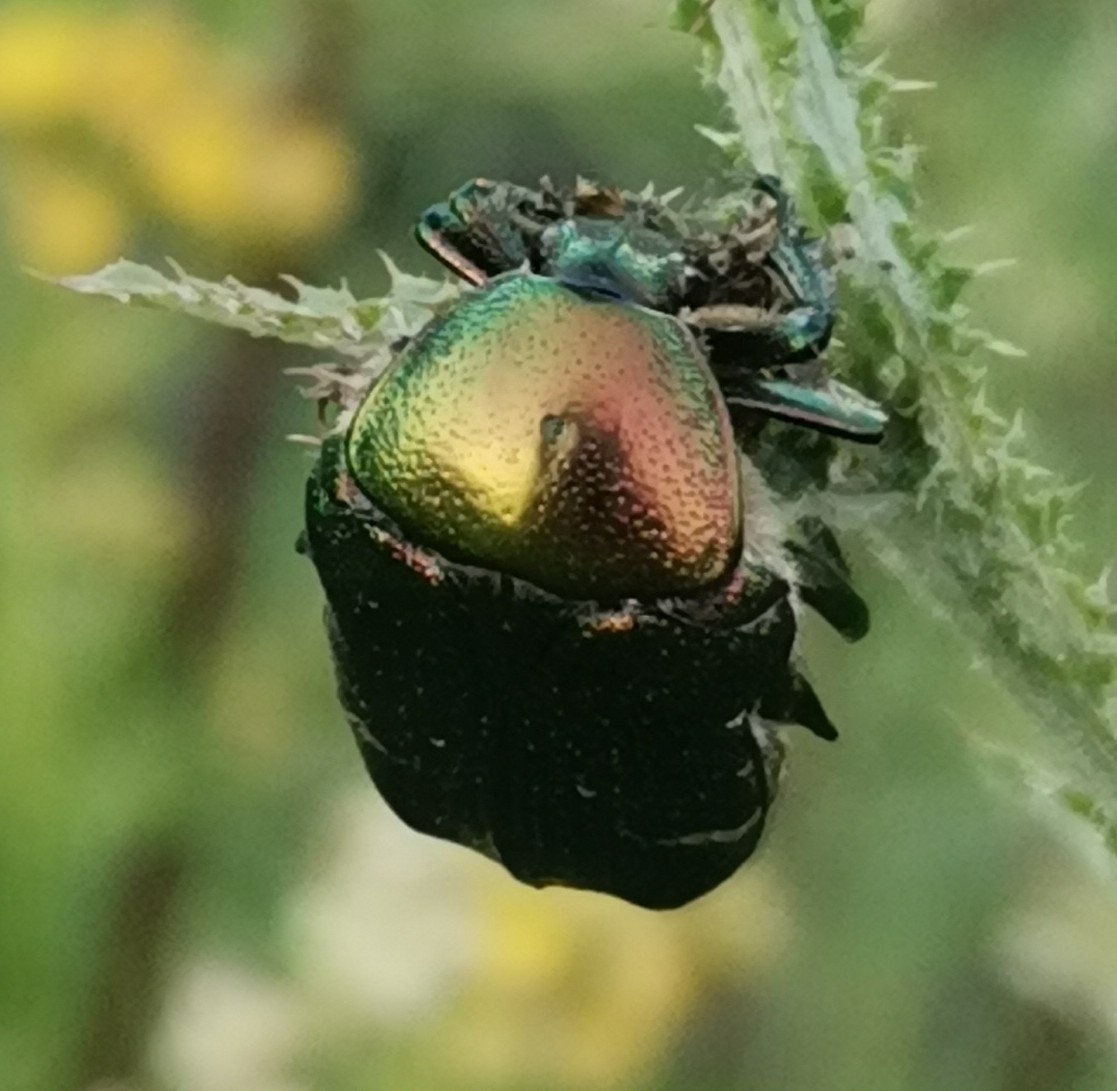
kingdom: Animalia
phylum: Arthropoda
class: Insecta
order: Coleoptera
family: Scarabaeidae
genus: Cetonia
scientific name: Cetonia aurata
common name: Rose chafer
